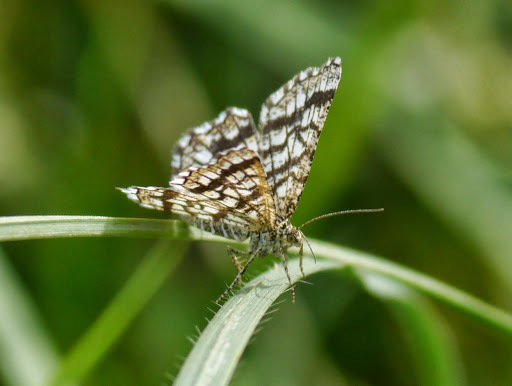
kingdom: Animalia
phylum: Arthropoda
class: Insecta
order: Lepidoptera
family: Geometridae
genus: Chiasmia
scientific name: Chiasmia clathrata
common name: Latticed heath
